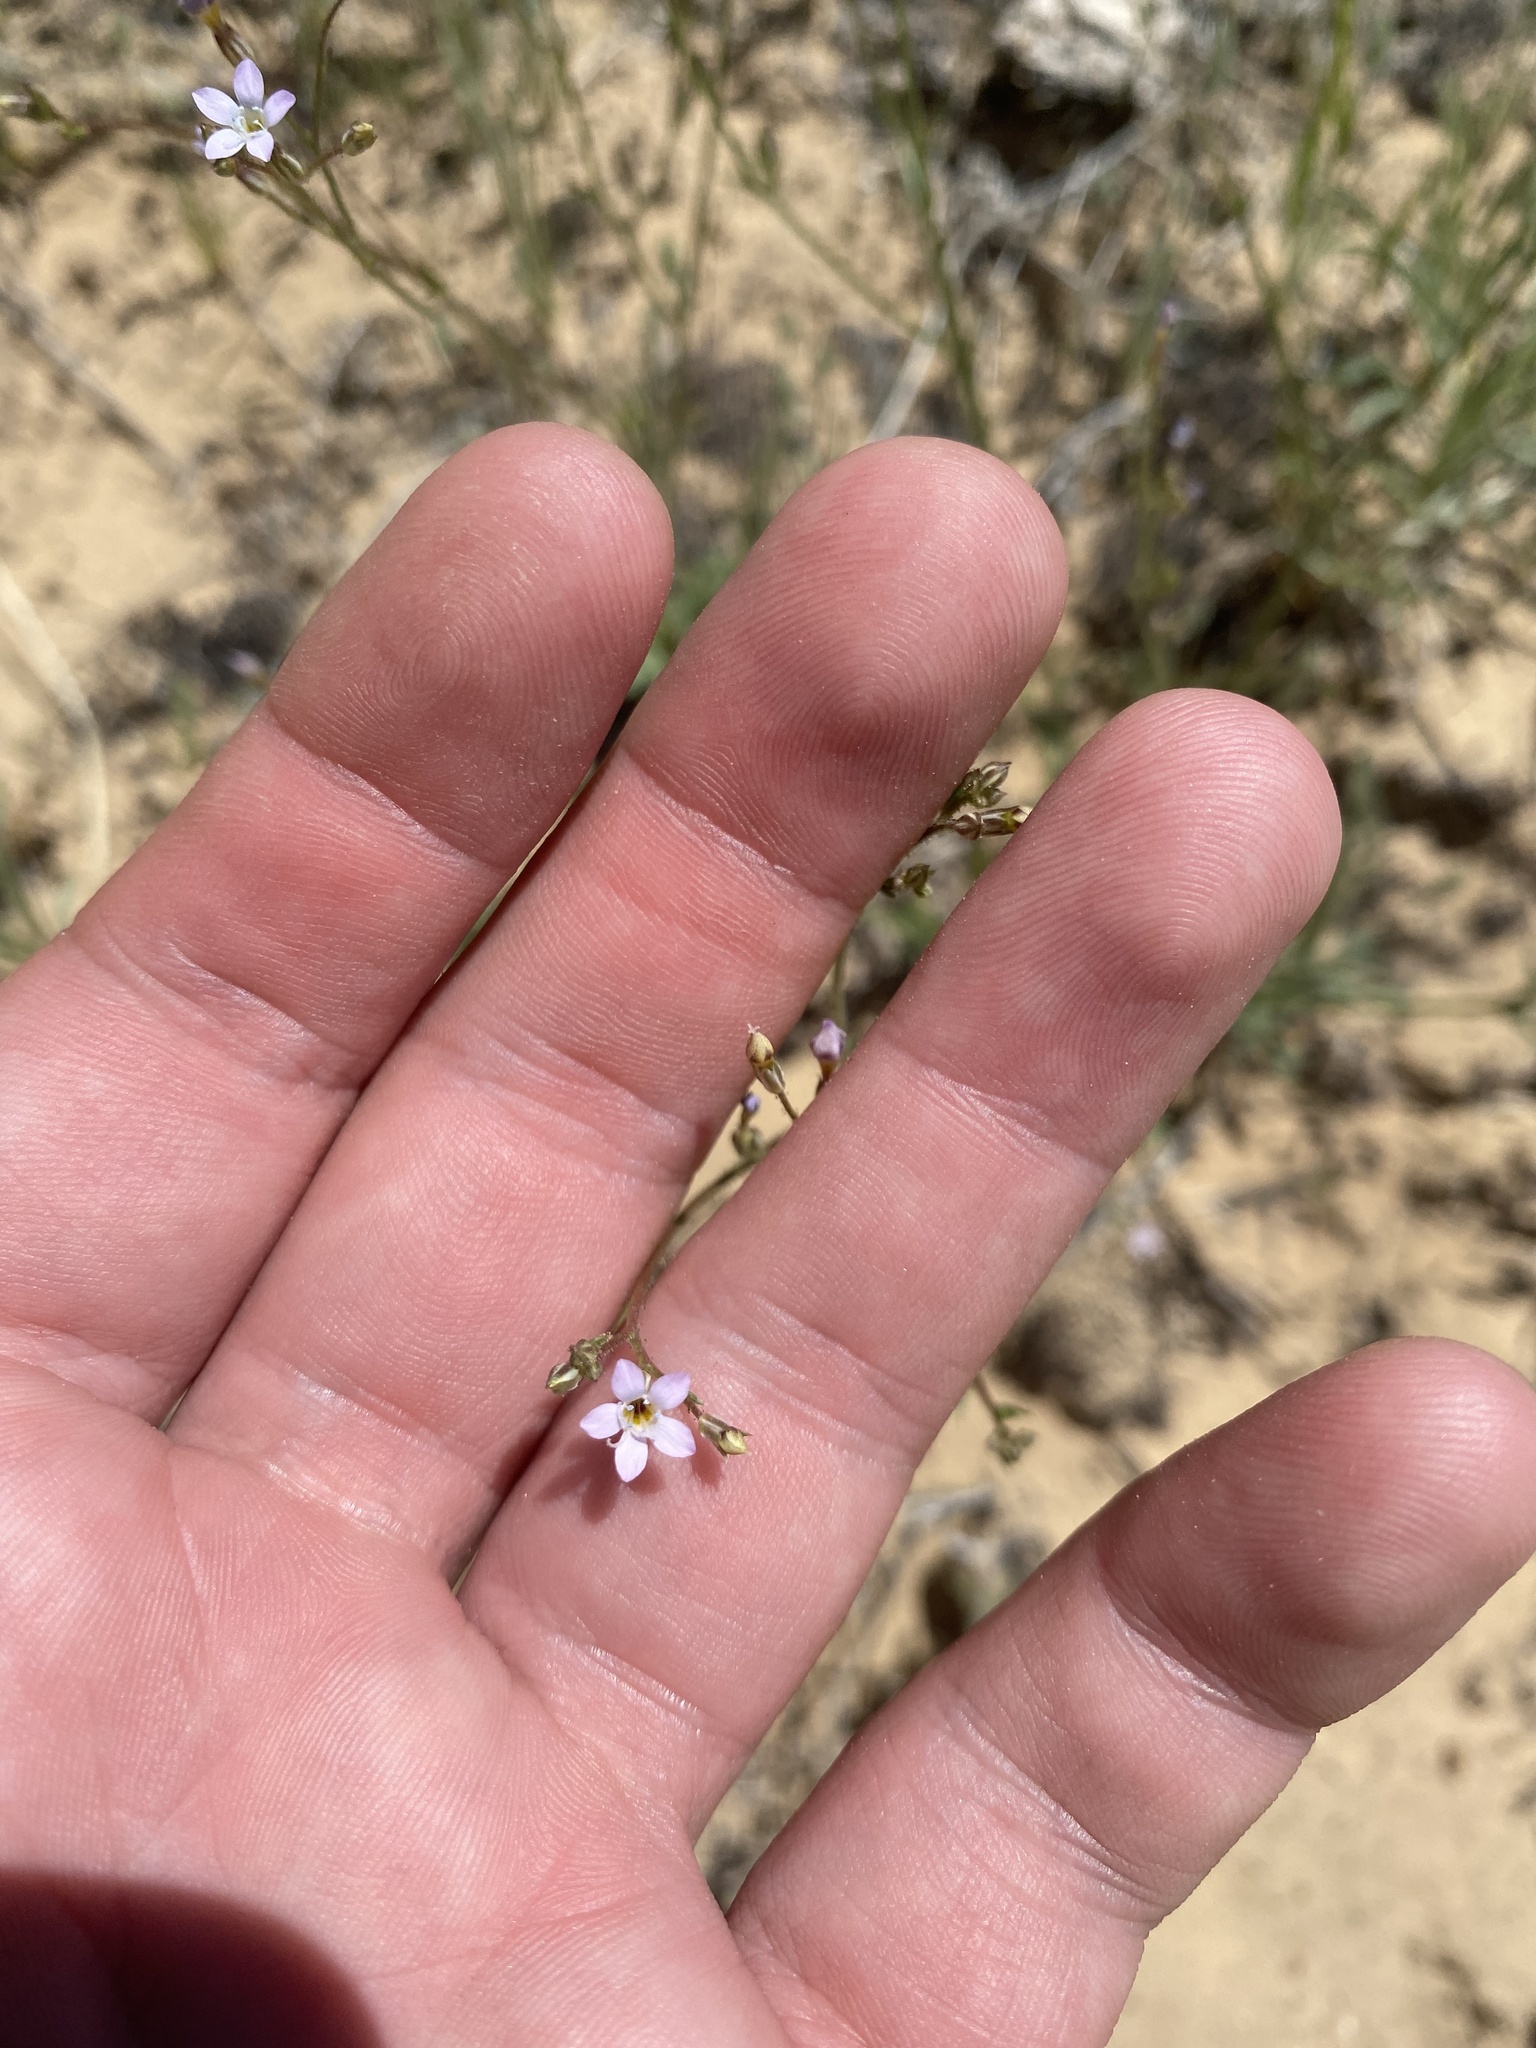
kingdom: Plantae
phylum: Tracheophyta
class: Magnoliopsida
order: Ericales
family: Polemoniaceae
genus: Gilia
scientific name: Gilia clokeyi
